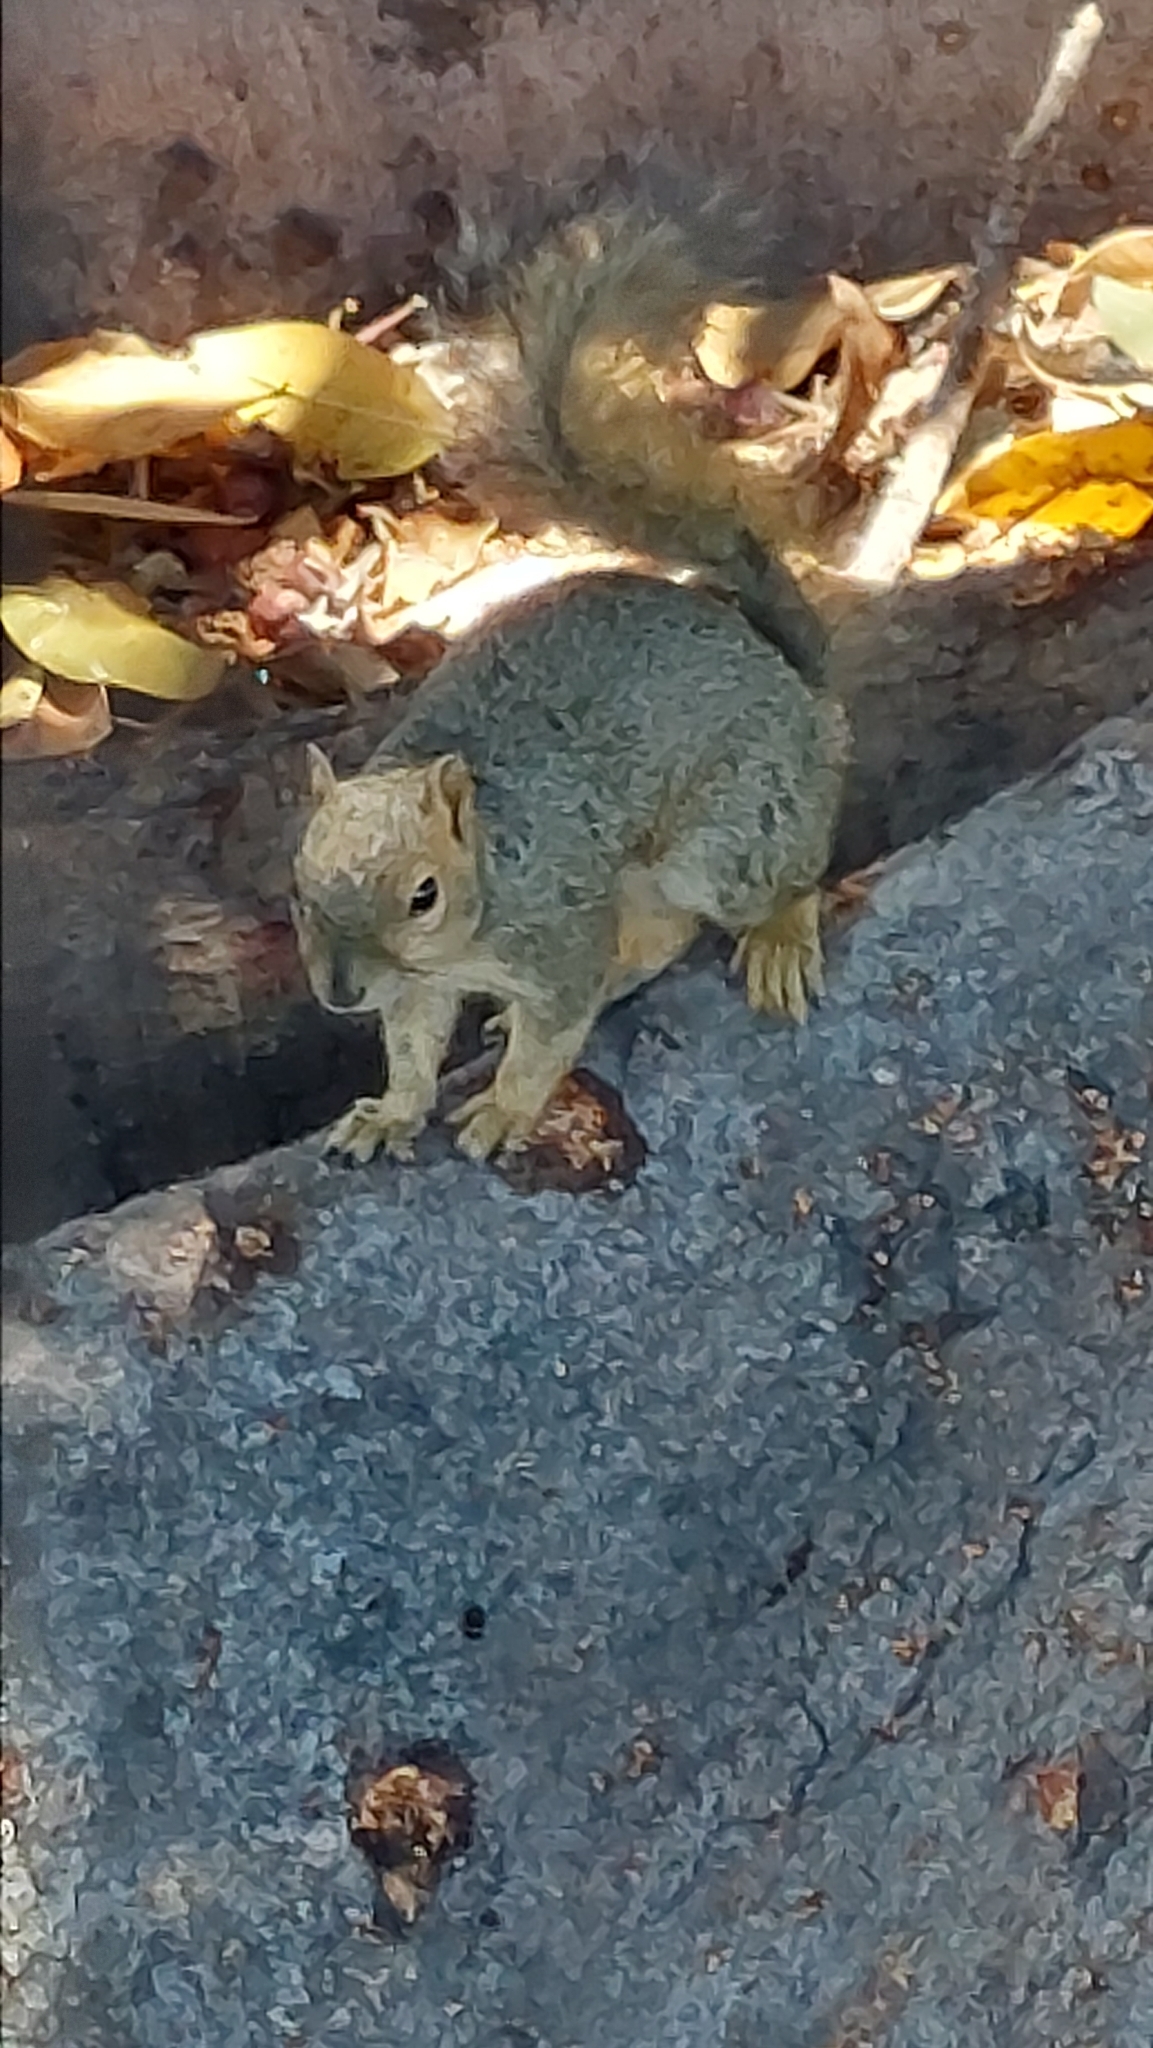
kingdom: Animalia
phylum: Chordata
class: Mammalia
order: Rodentia
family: Sciuridae
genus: Sciurus
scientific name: Sciurus niger
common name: Fox squirrel
